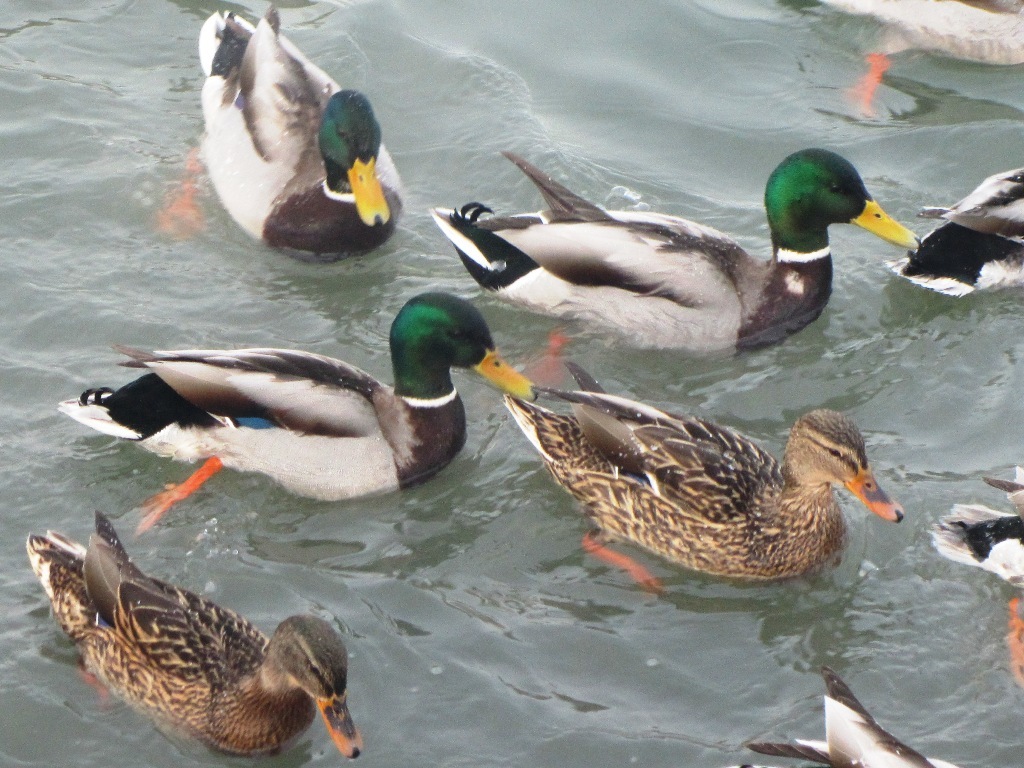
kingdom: Animalia
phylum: Chordata
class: Aves
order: Anseriformes
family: Anatidae
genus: Anas
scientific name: Anas platyrhynchos
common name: Mallard
